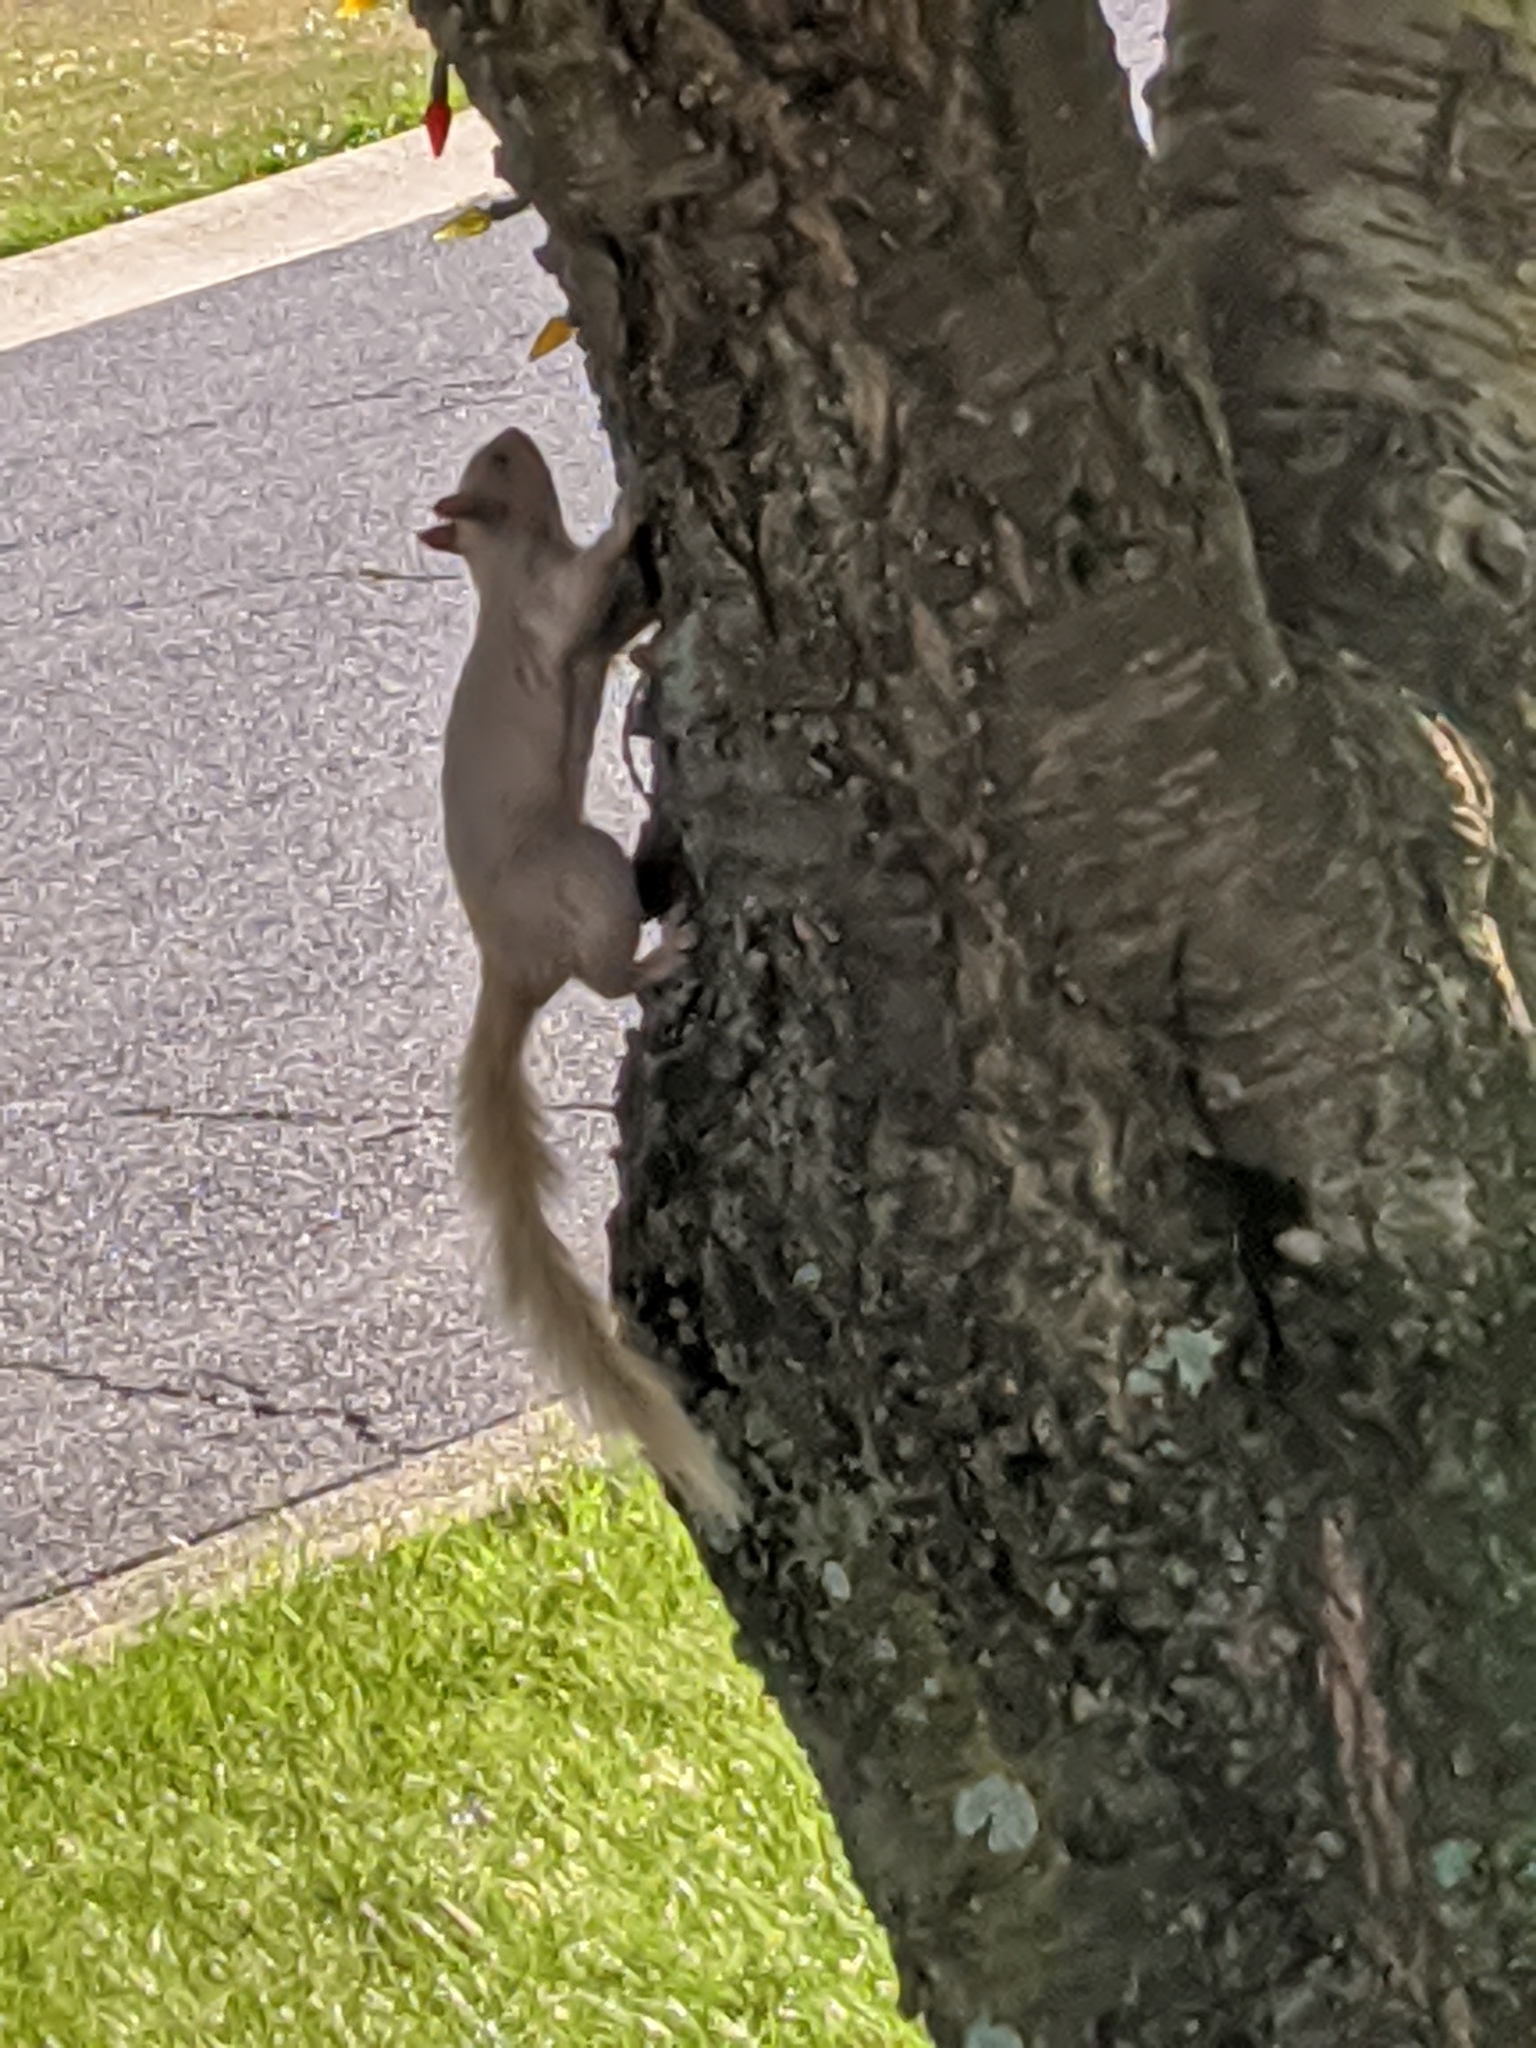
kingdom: Animalia
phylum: Chordata
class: Mammalia
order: Rodentia
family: Sciuridae
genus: Sciurus
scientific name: Sciurus carolinensis
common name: Eastern gray squirrel
